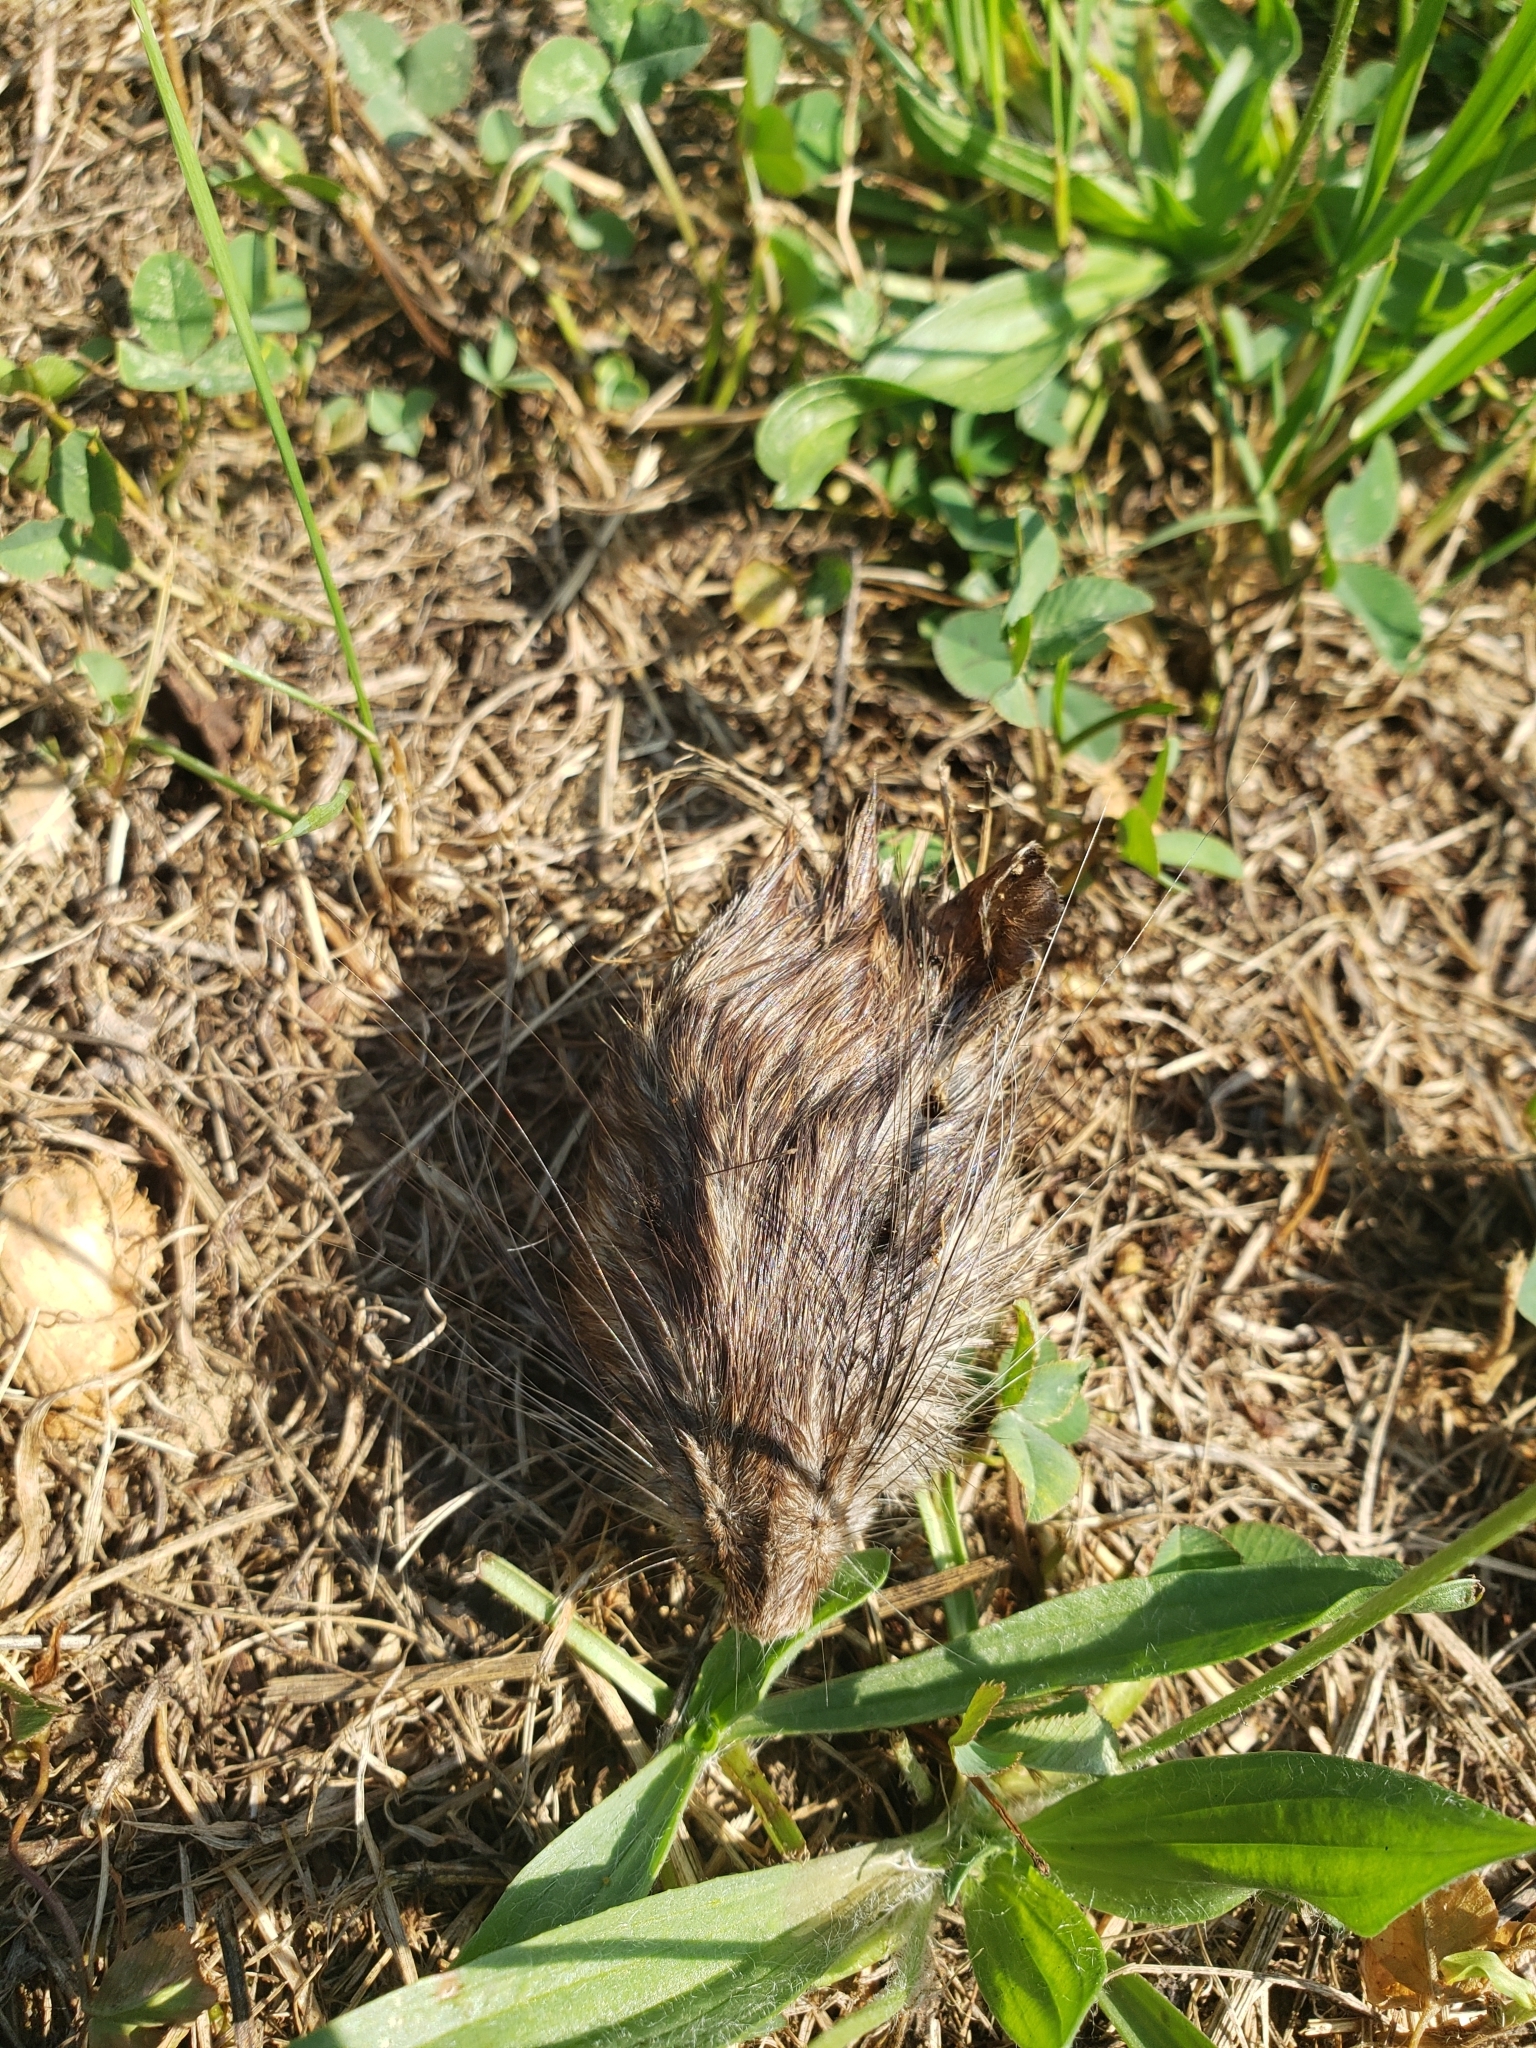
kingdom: Animalia
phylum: Chordata
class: Mammalia
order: Rodentia
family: Muridae
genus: Rattus
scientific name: Rattus norvegicus
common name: Brown rat
